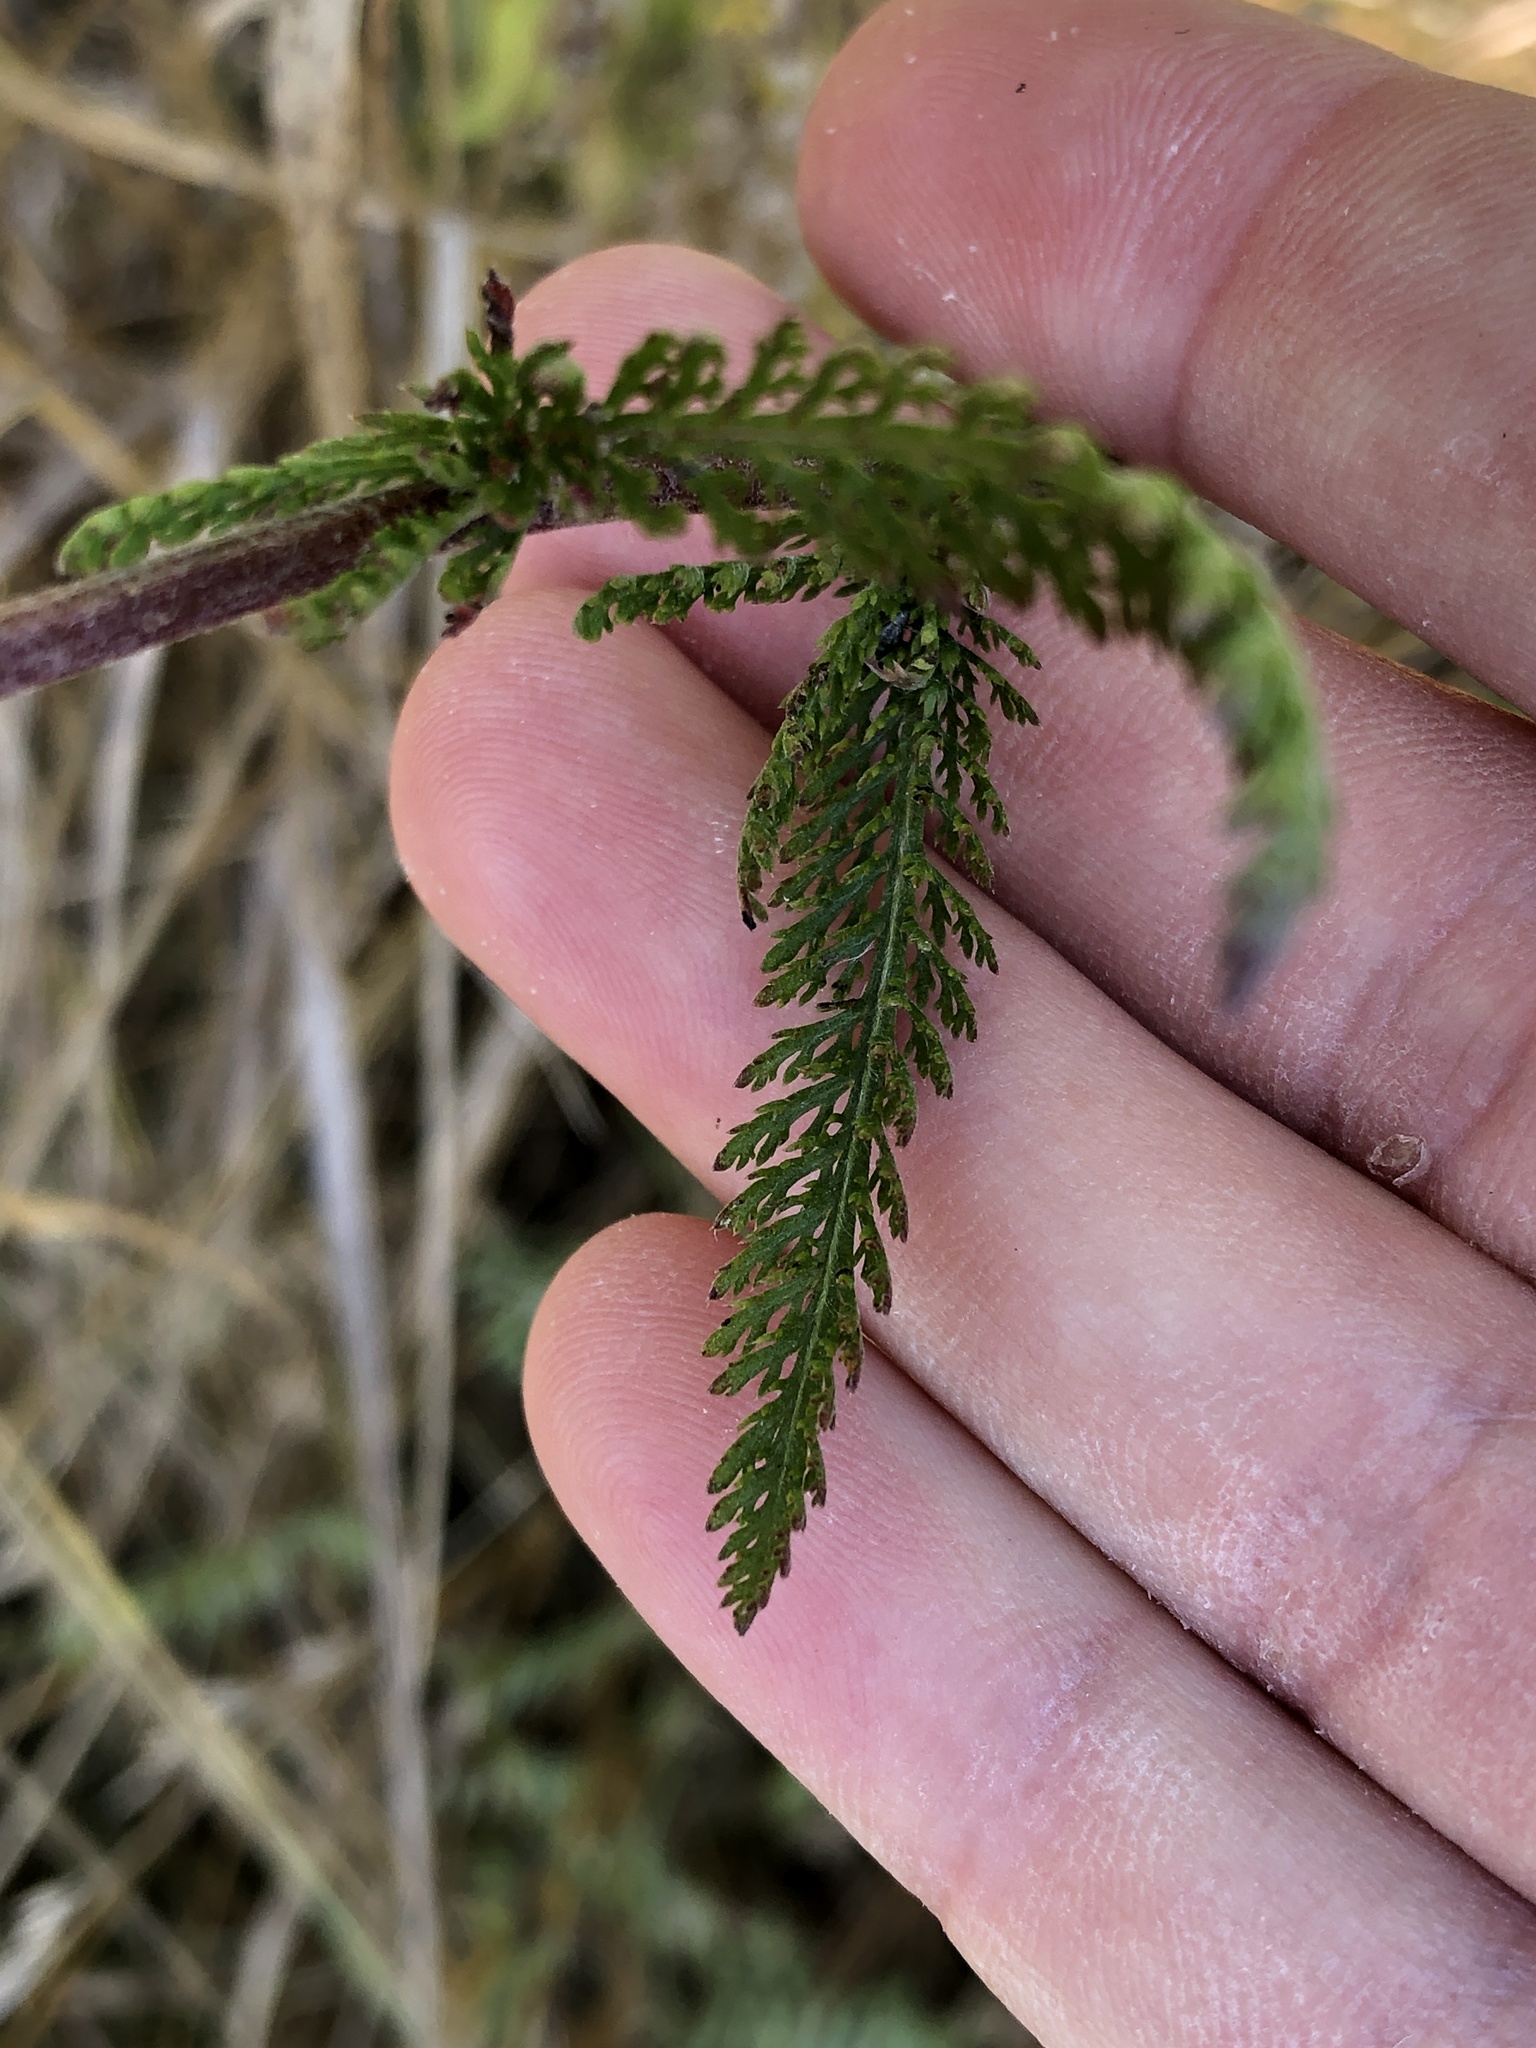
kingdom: Plantae
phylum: Tracheophyta
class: Magnoliopsida
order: Asterales
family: Asteraceae
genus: Achillea
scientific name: Achillea millefolium
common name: Yarrow
